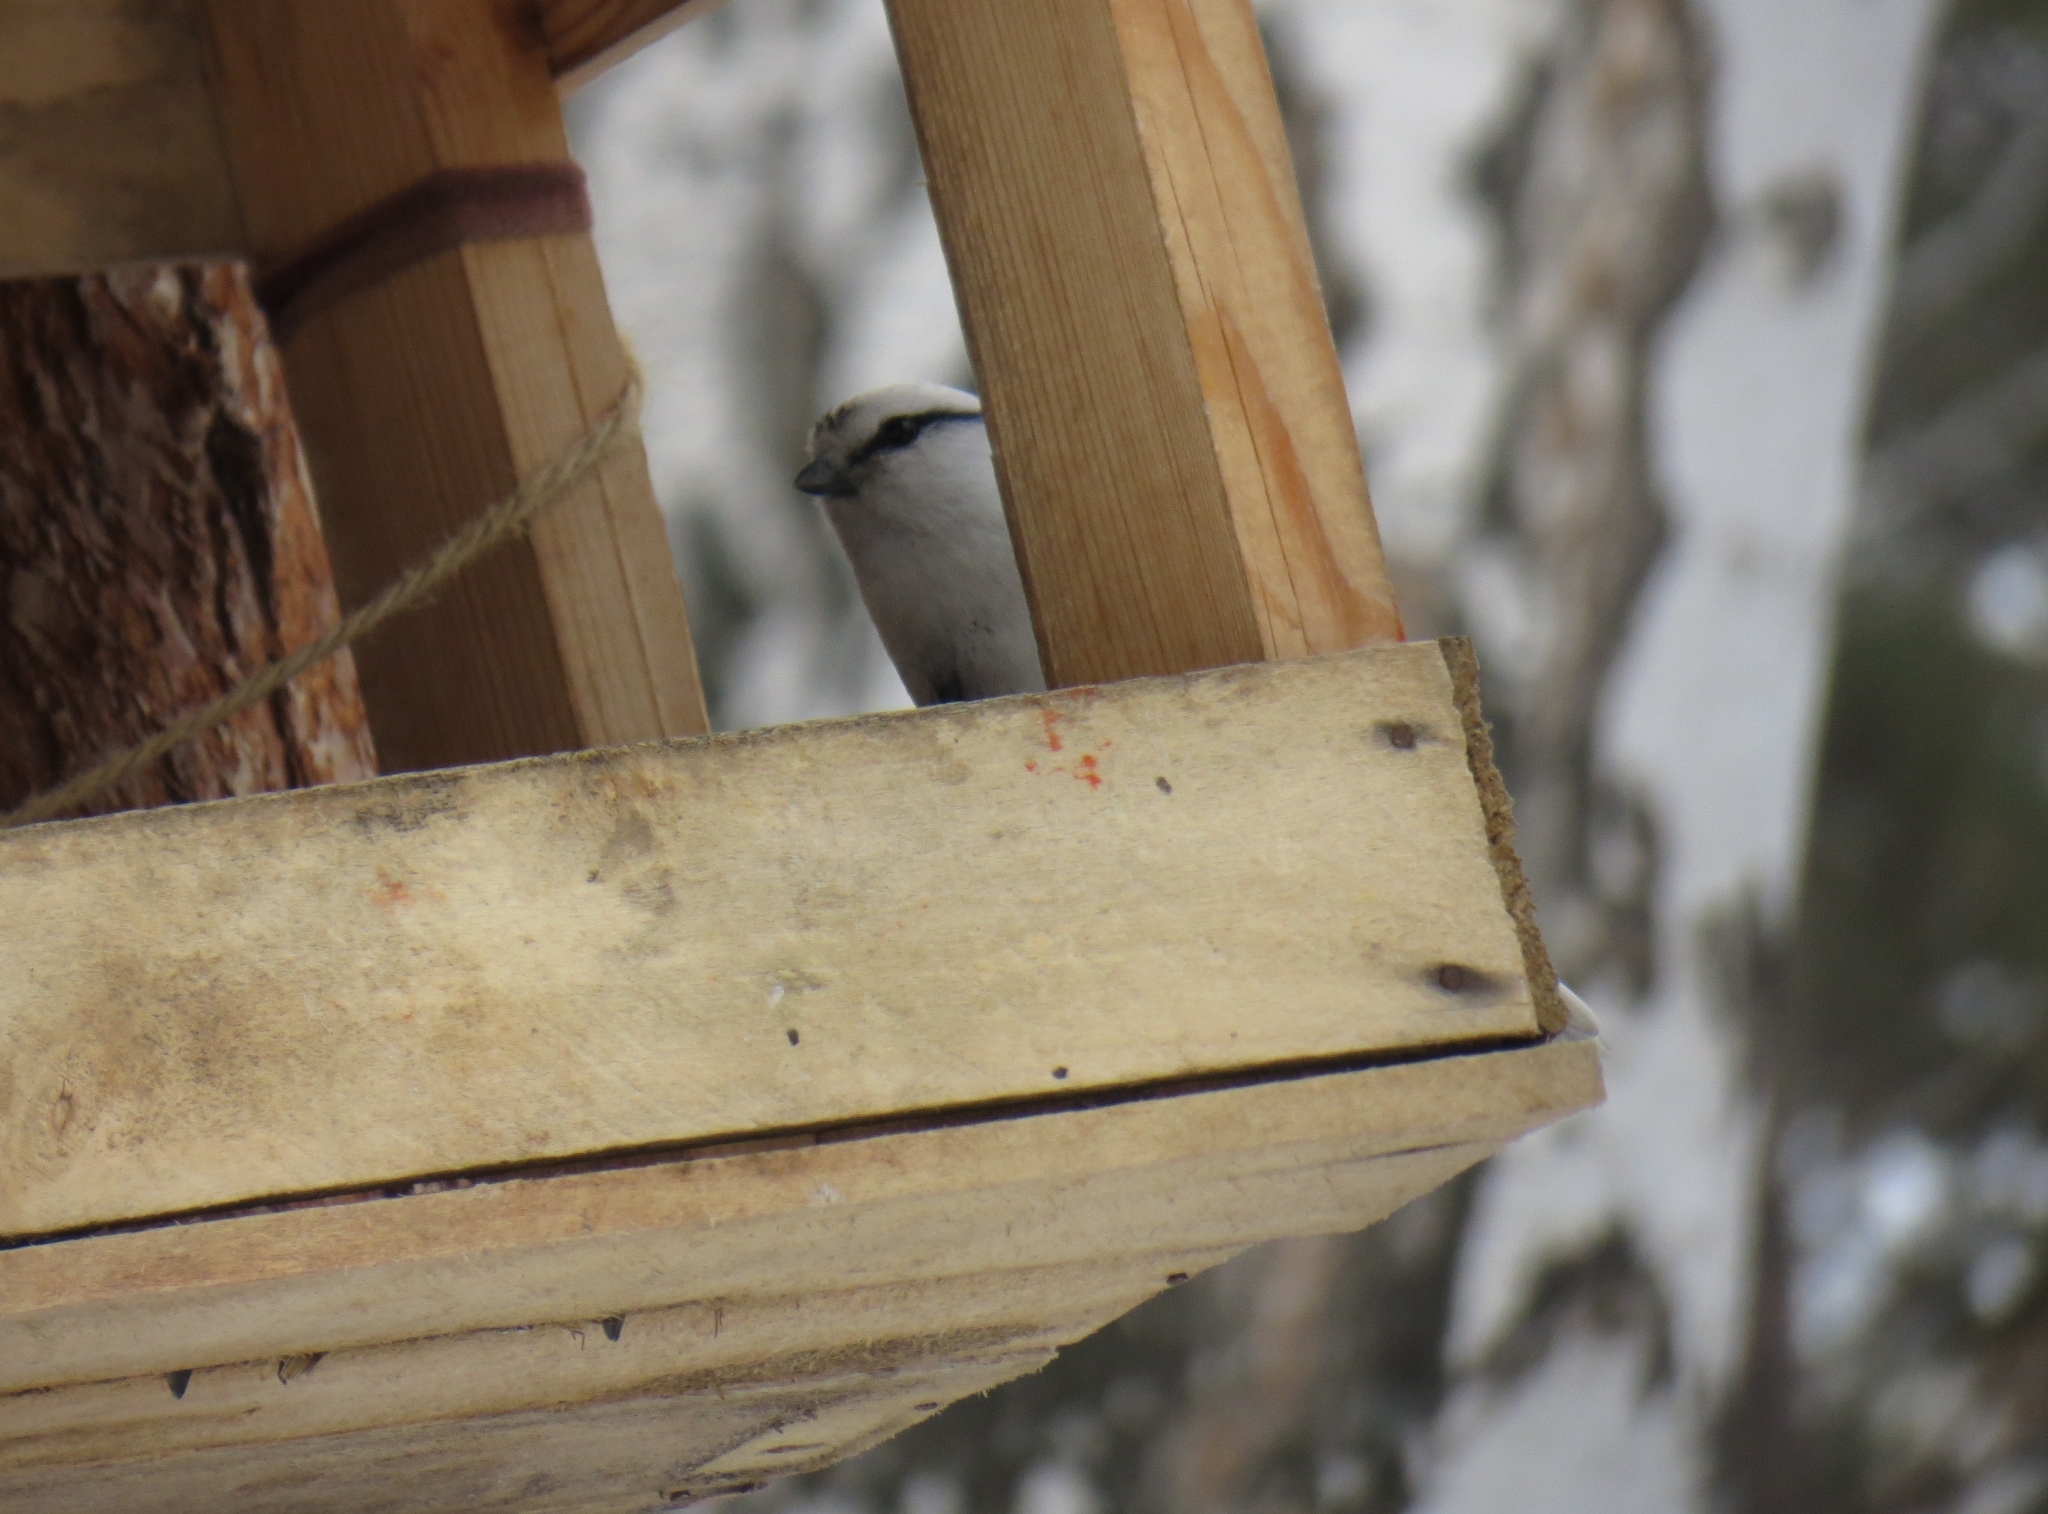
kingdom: Animalia
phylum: Chordata
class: Aves
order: Passeriformes
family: Paridae
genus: Cyanistes
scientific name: Cyanistes cyanus
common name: Azure tit
